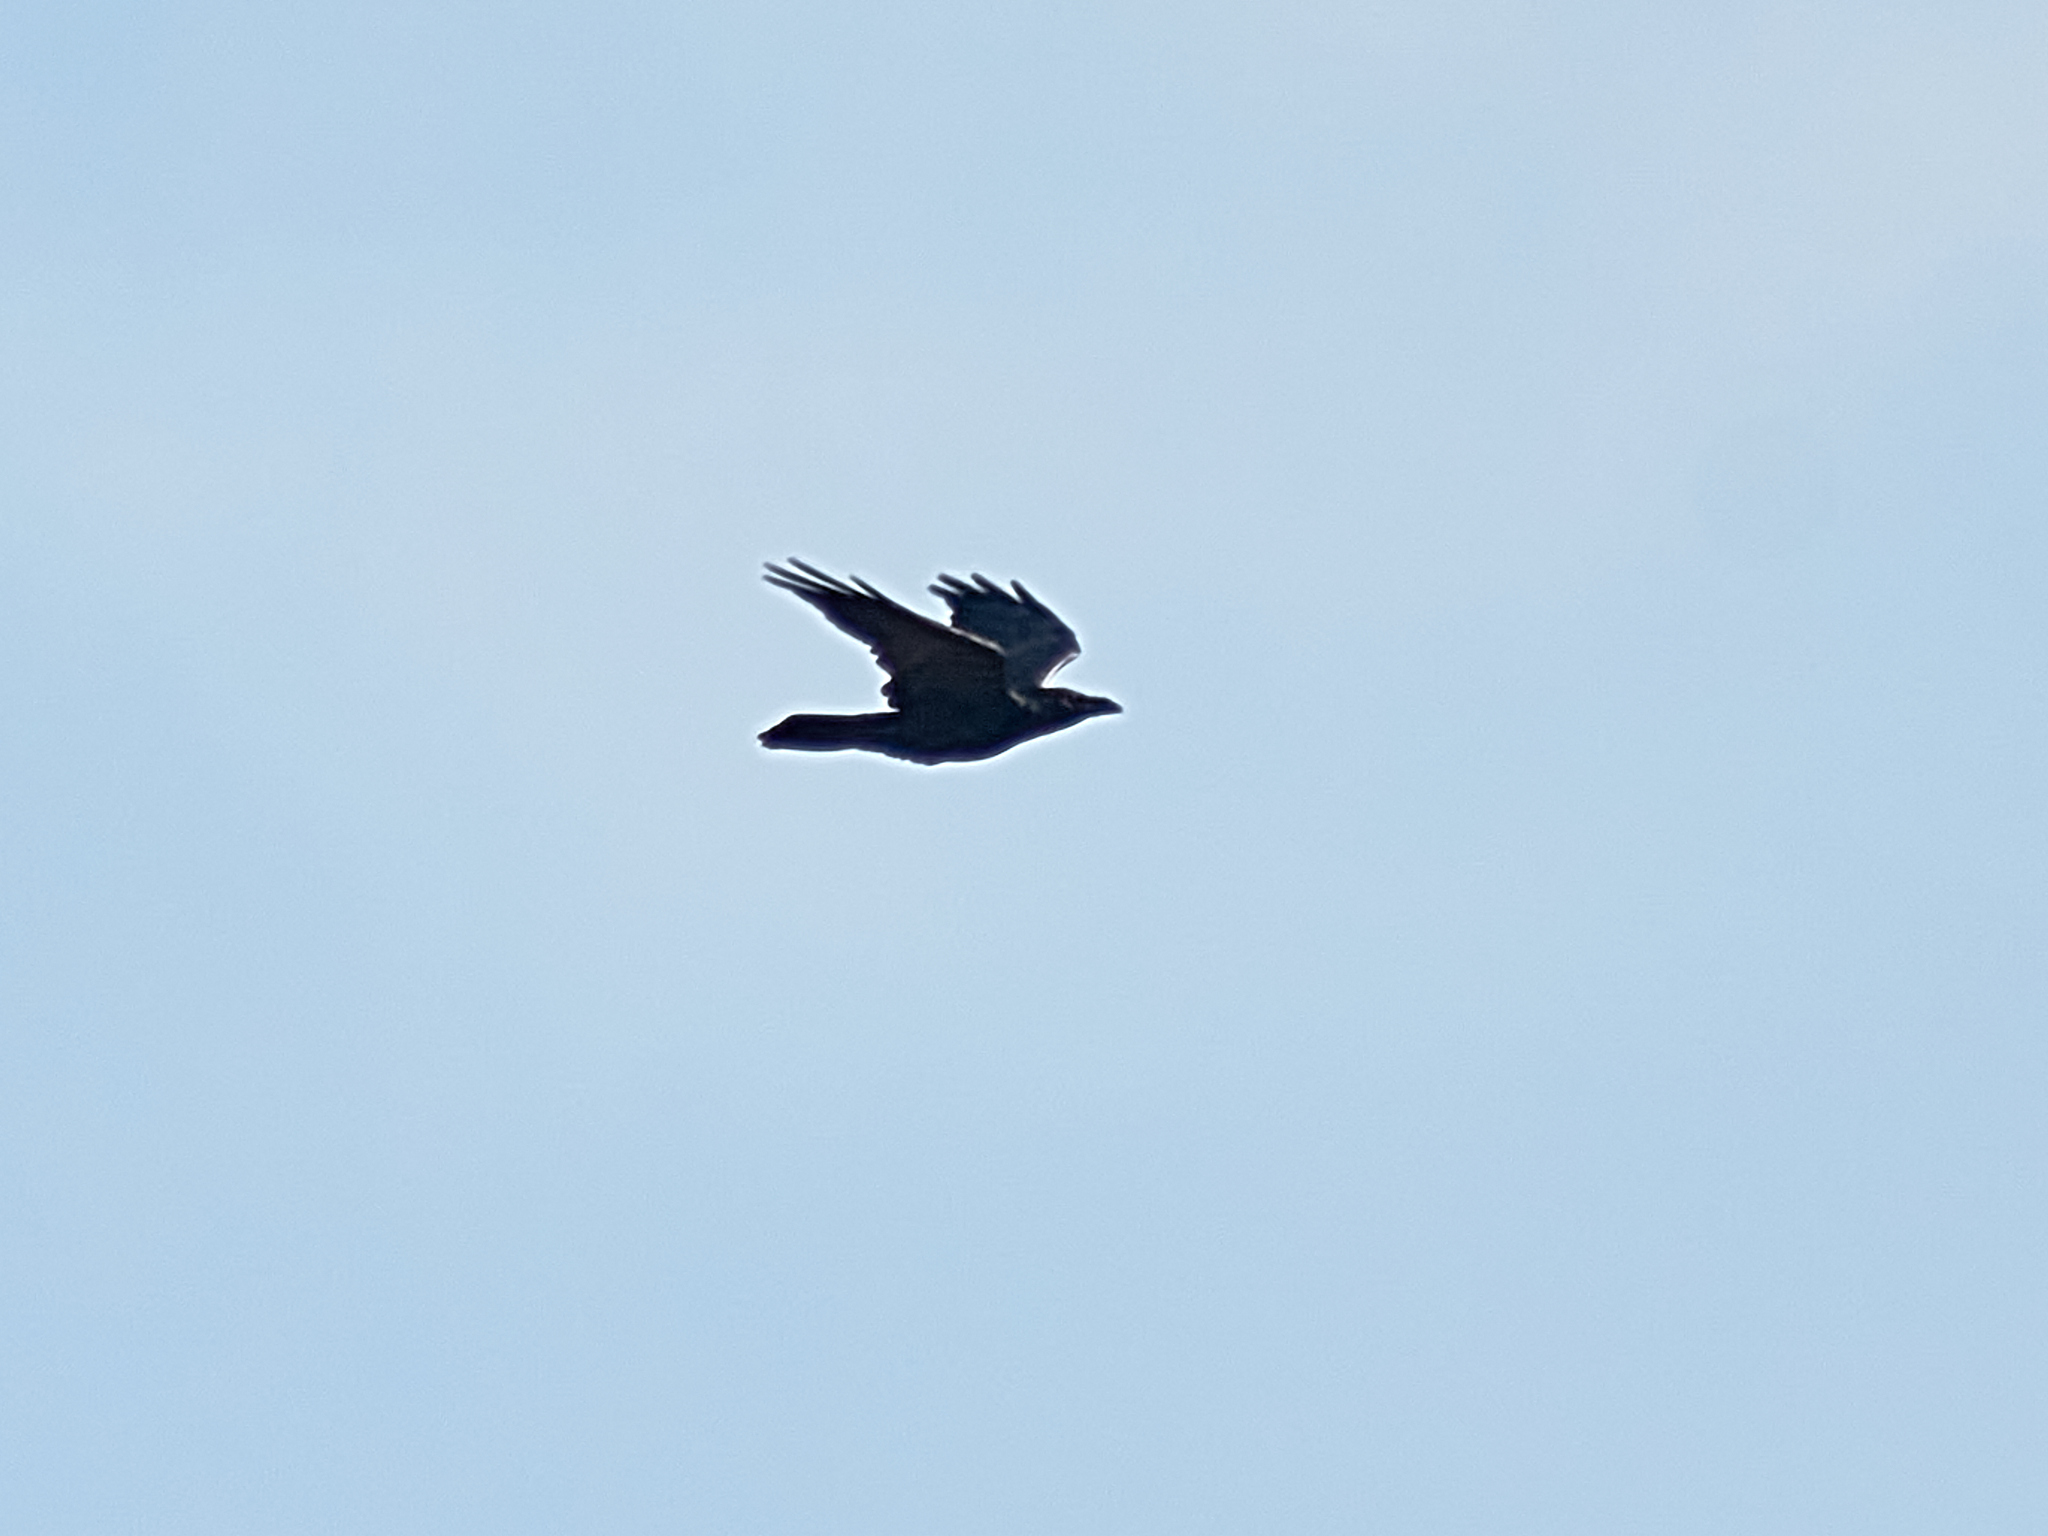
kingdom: Animalia
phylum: Chordata
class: Aves
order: Passeriformes
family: Corvidae
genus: Corvus
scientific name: Corvus corax
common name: Common raven
